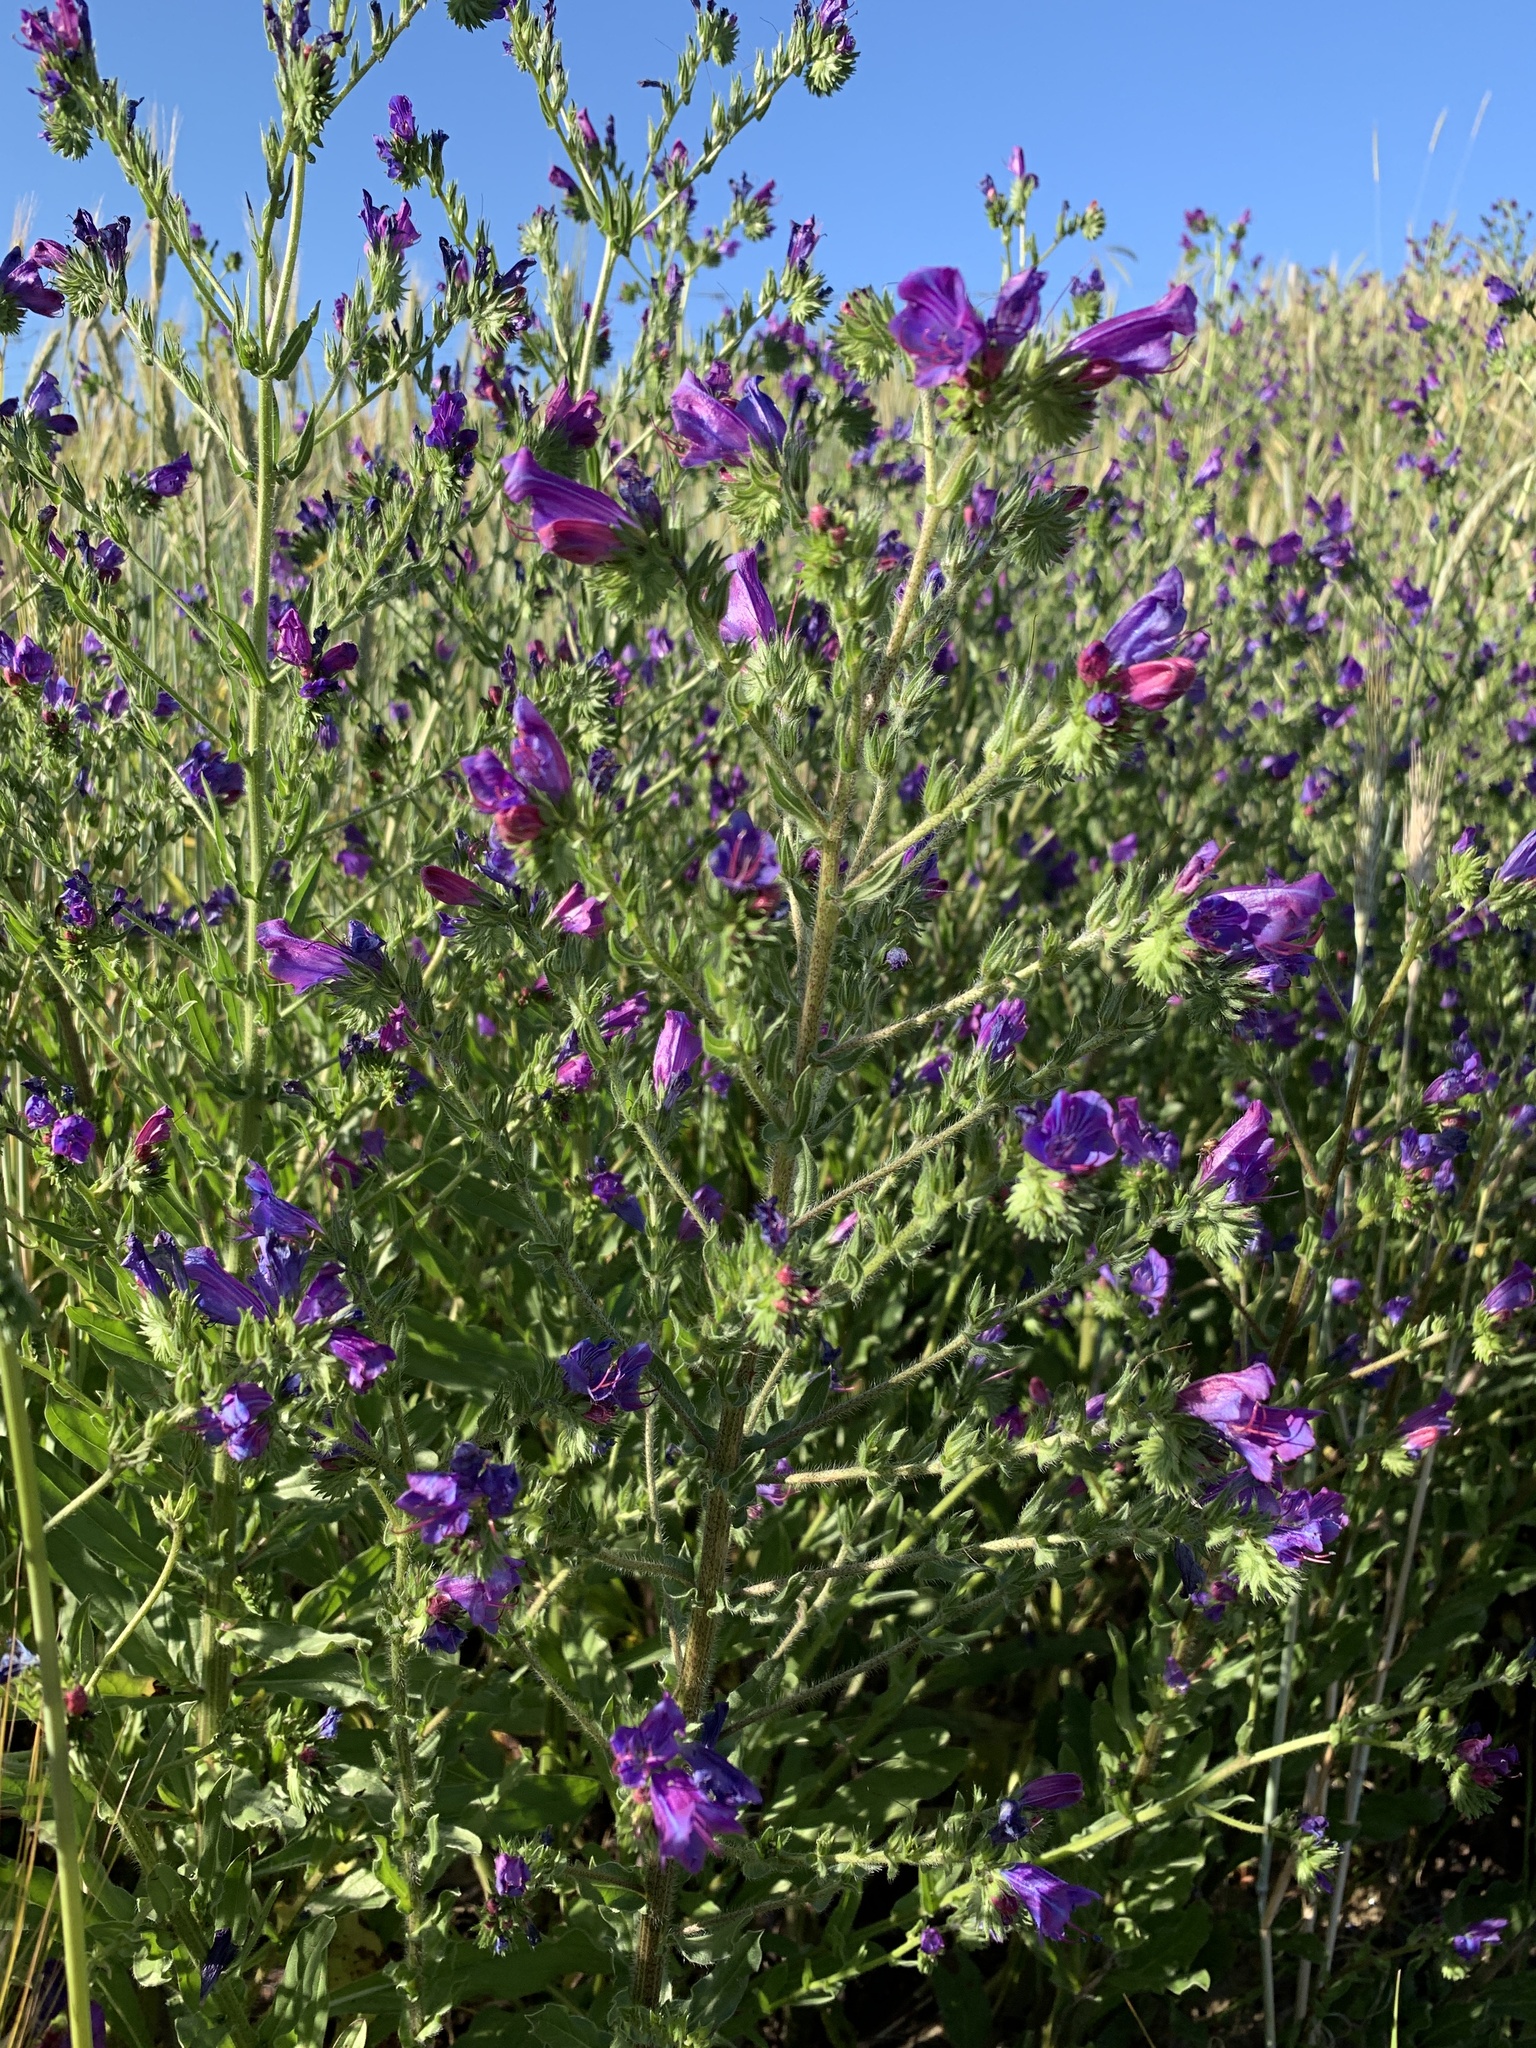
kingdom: Plantae
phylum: Tracheophyta
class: Magnoliopsida
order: Boraginales
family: Boraginaceae
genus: Echium
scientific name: Echium plantagineum
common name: Purple viper's-bugloss
